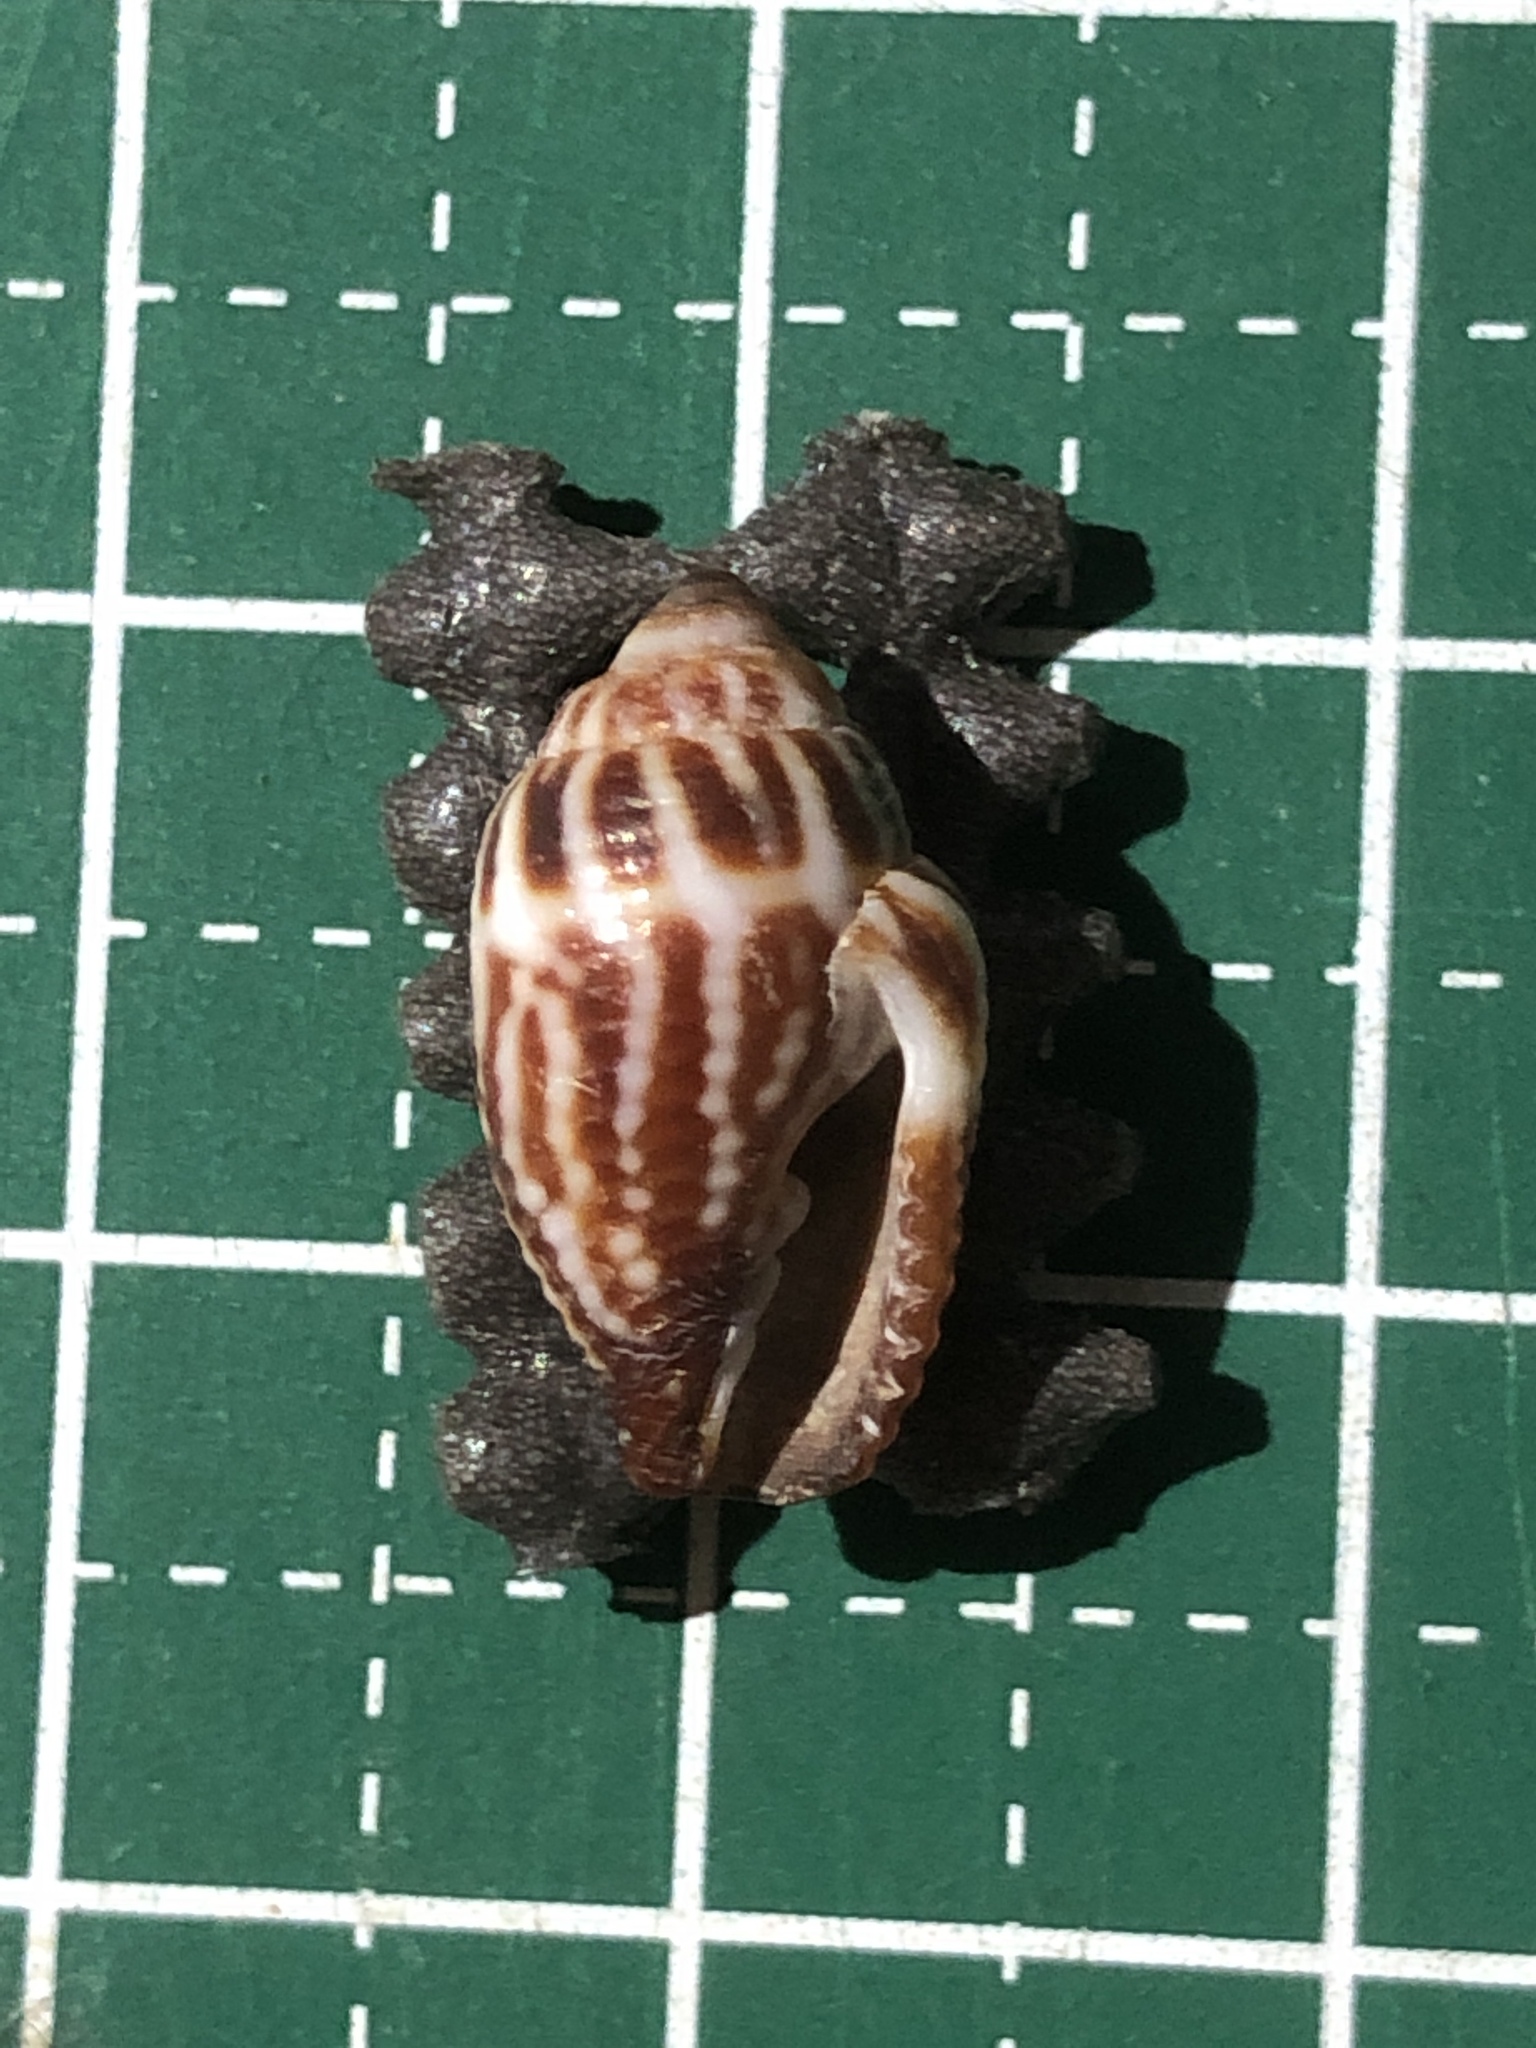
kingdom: Animalia
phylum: Mollusca
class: Gastropoda
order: Neogastropoda
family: Mitridae
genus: Strigatella
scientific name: Strigatella retusa
